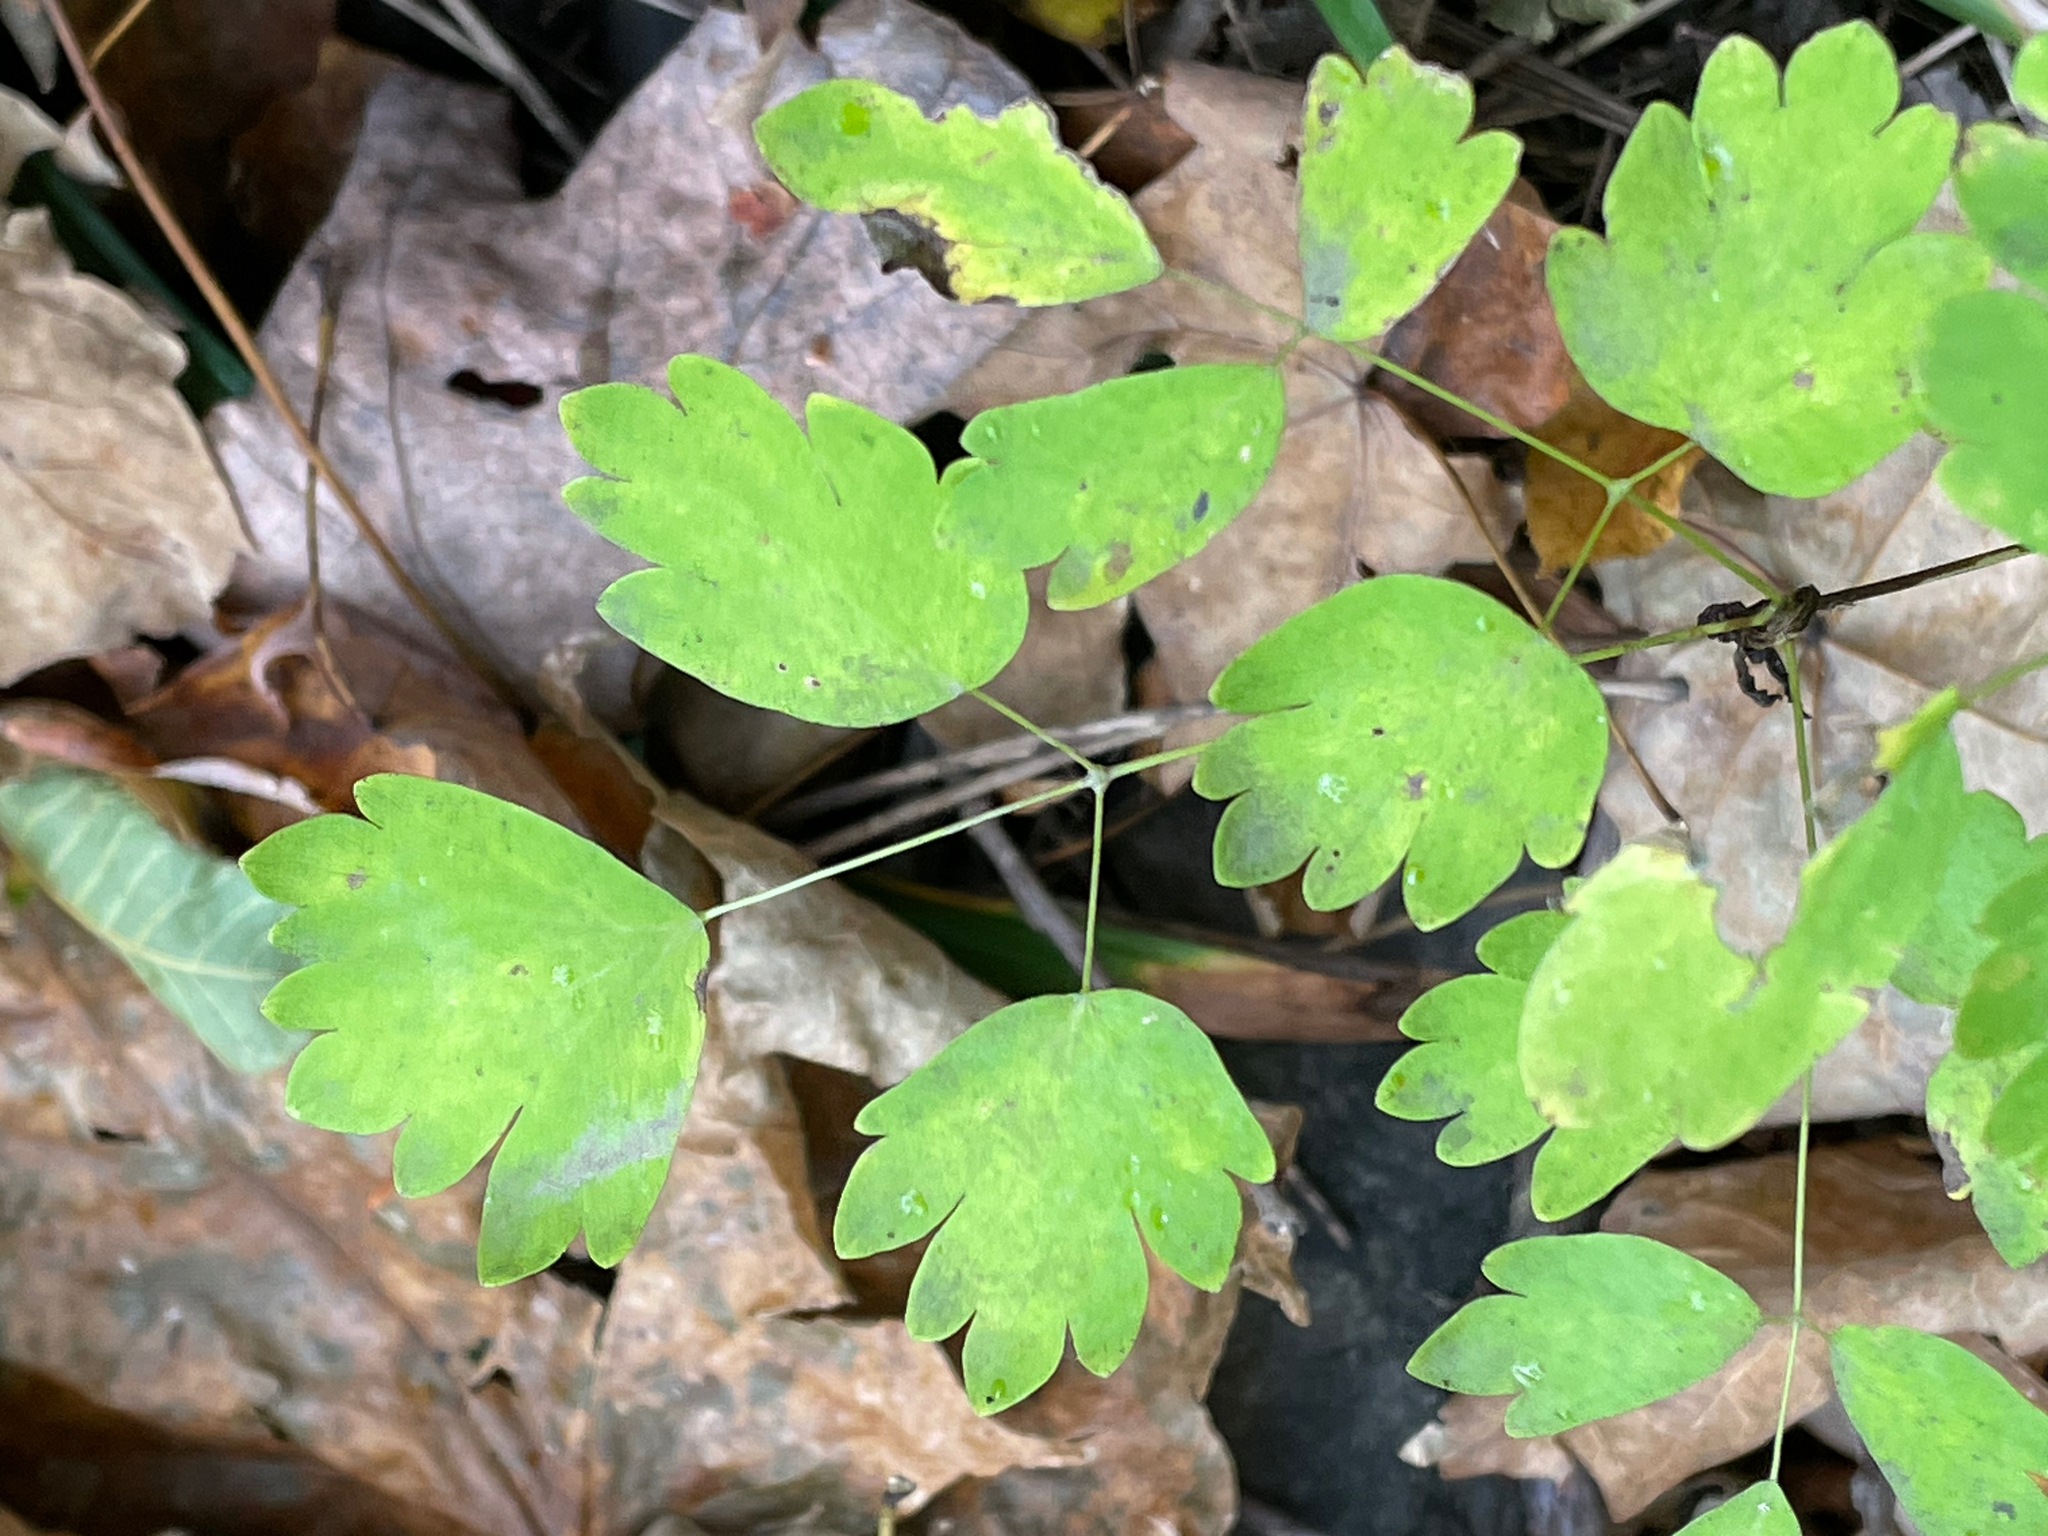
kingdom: Plantae
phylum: Tracheophyta
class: Magnoliopsida
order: Ranunculales
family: Ranunculaceae
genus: Thalictrum
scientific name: Thalictrum dioicum
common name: Early meadow-rue
